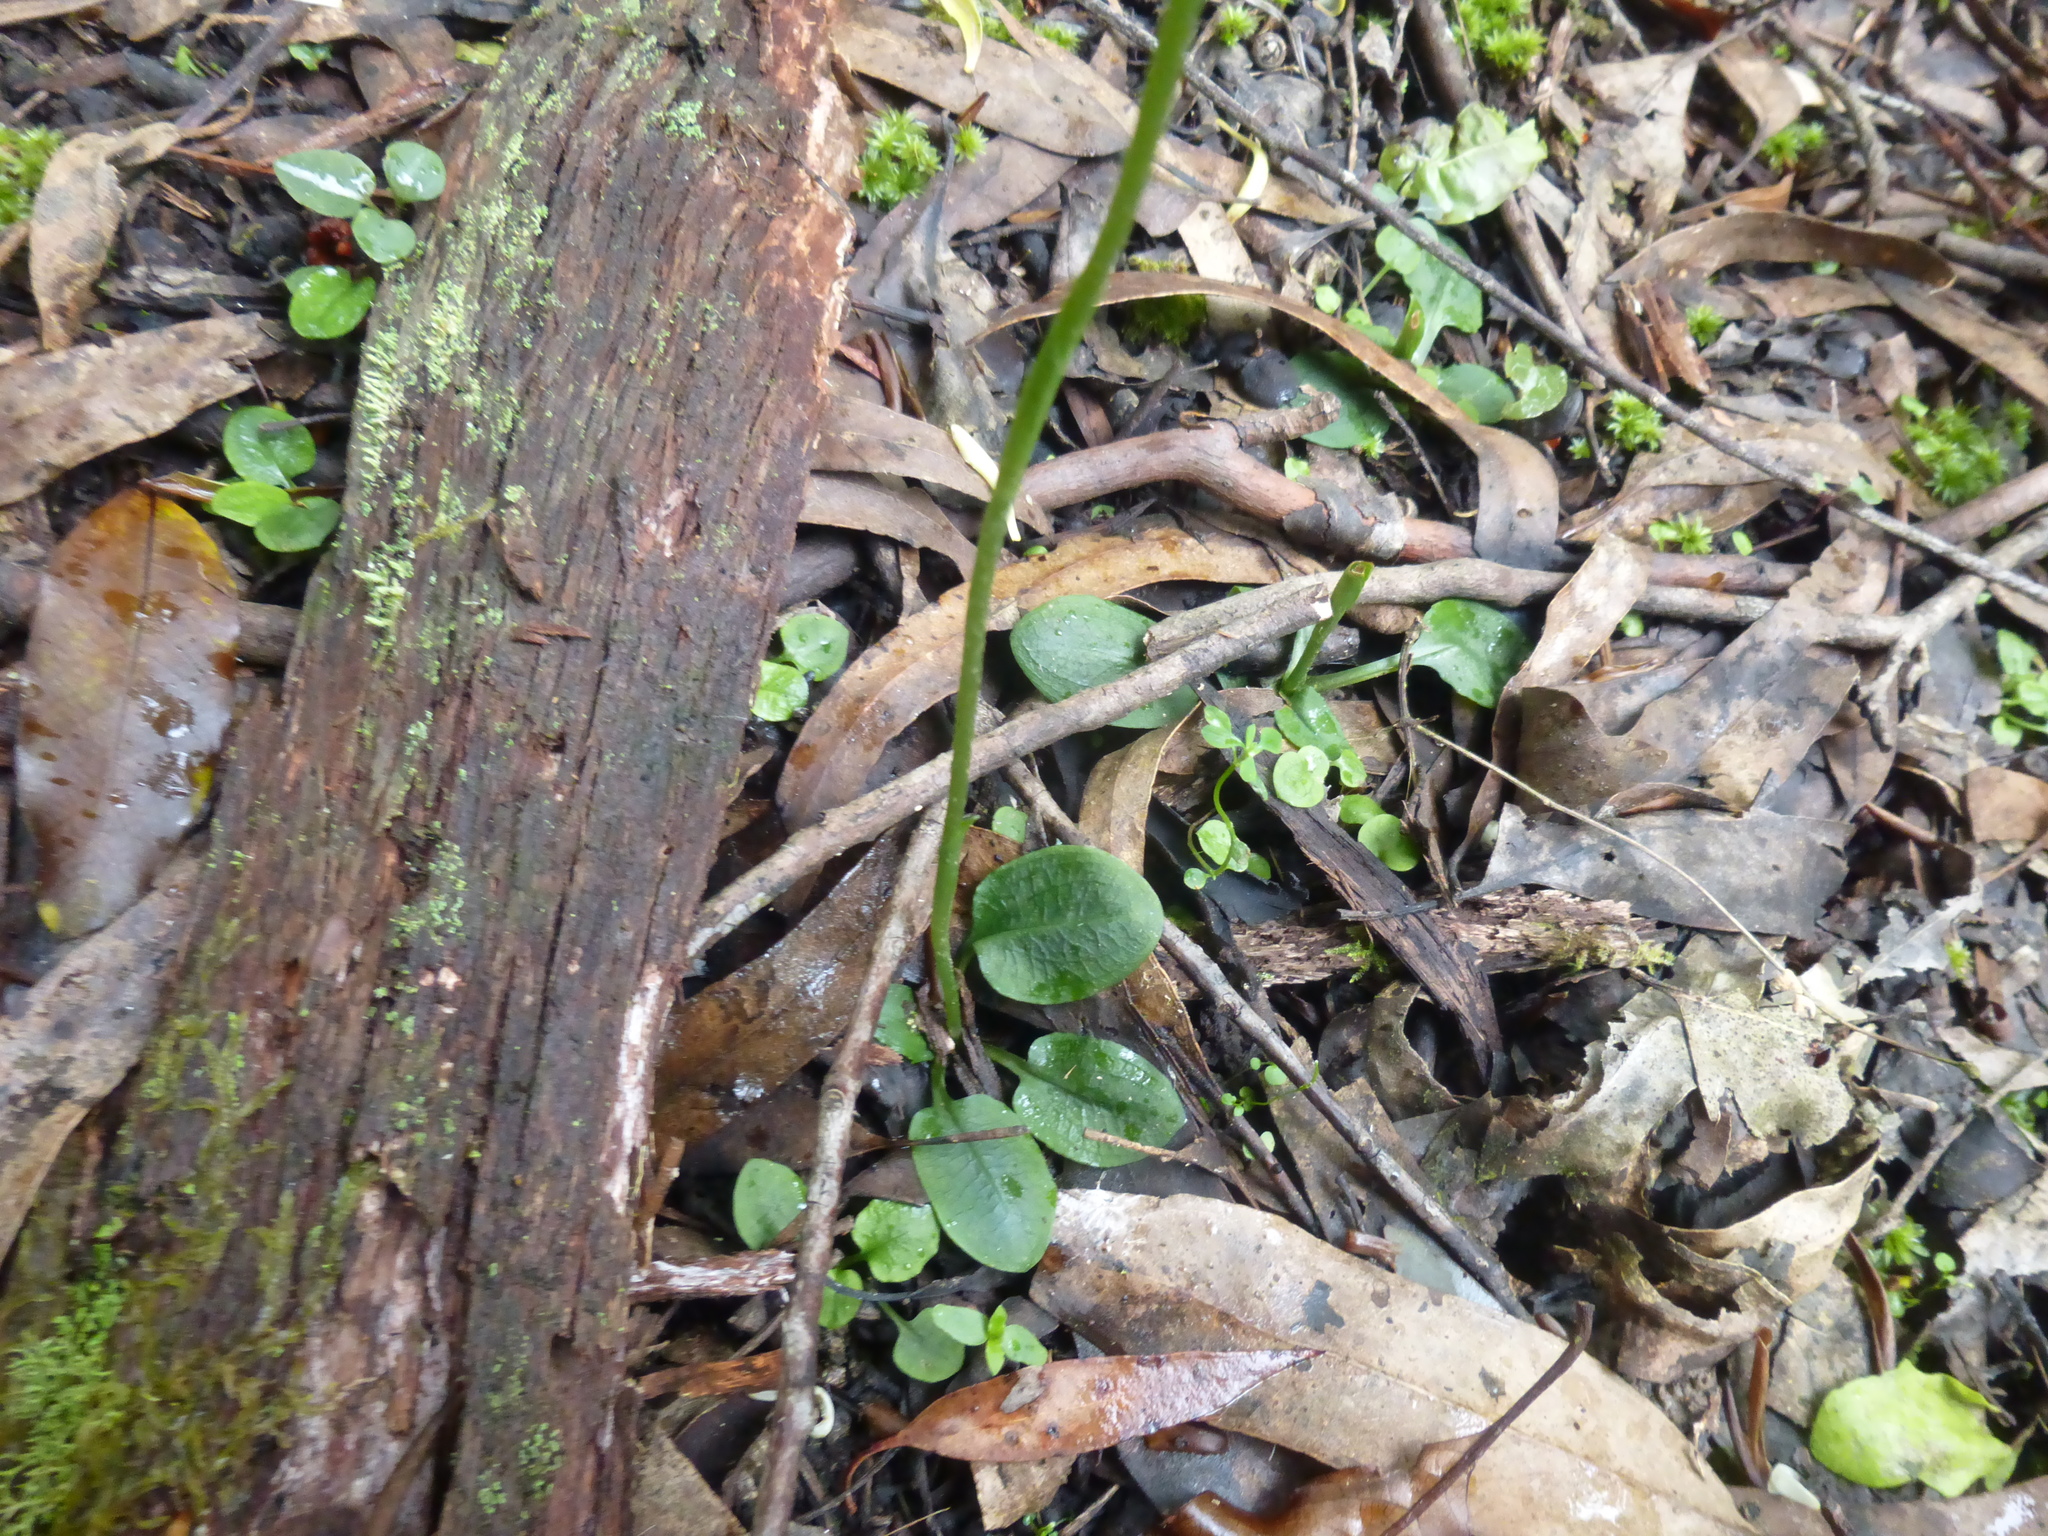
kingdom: Plantae
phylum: Tracheophyta
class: Liliopsida
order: Asparagales
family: Orchidaceae
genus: Pterostylis
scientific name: Pterostylis pedunculata
